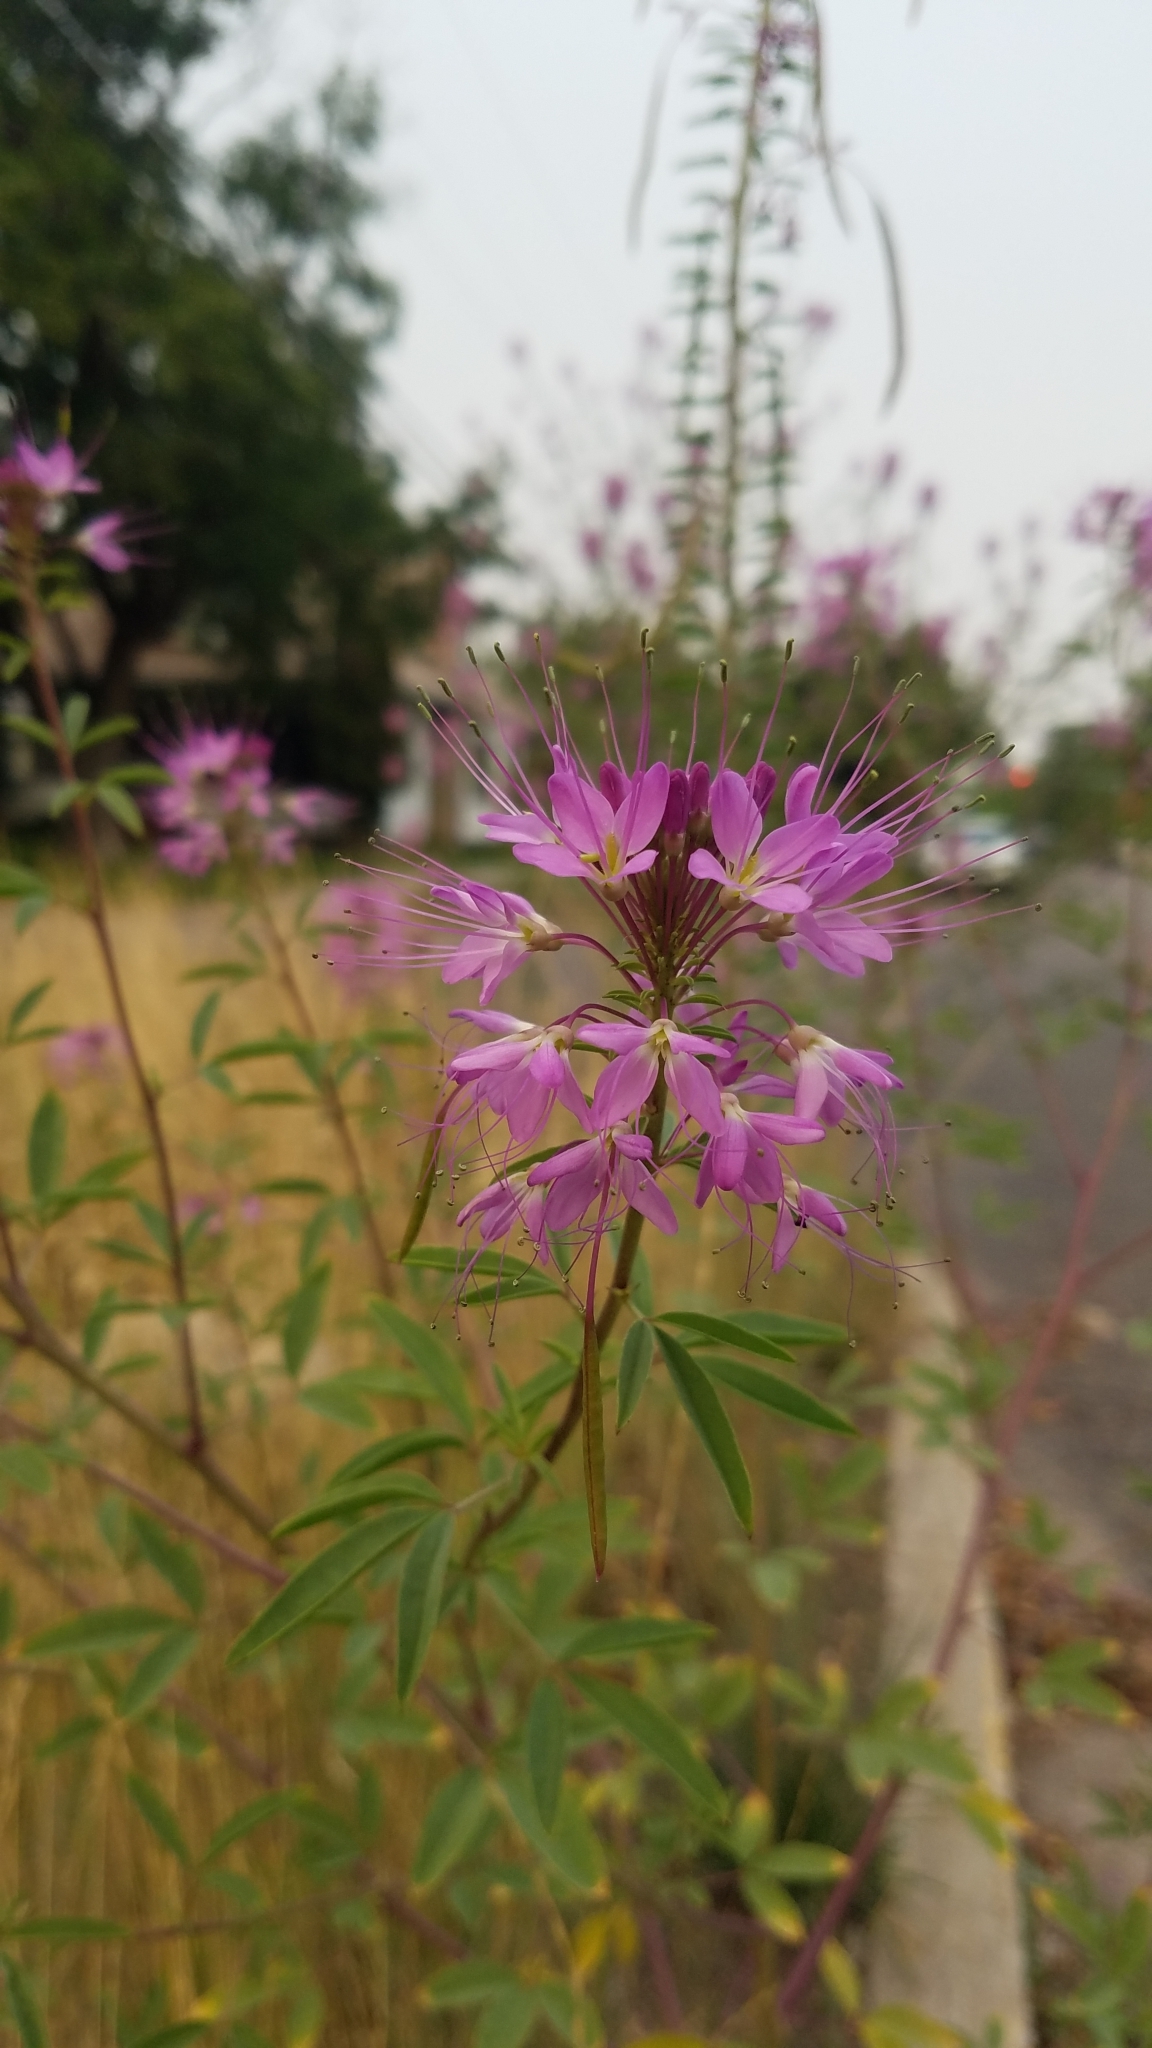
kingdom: Plantae
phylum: Tracheophyta
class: Magnoliopsida
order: Brassicales
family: Cleomaceae
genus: Cleomella
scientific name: Cleomella serrulata
